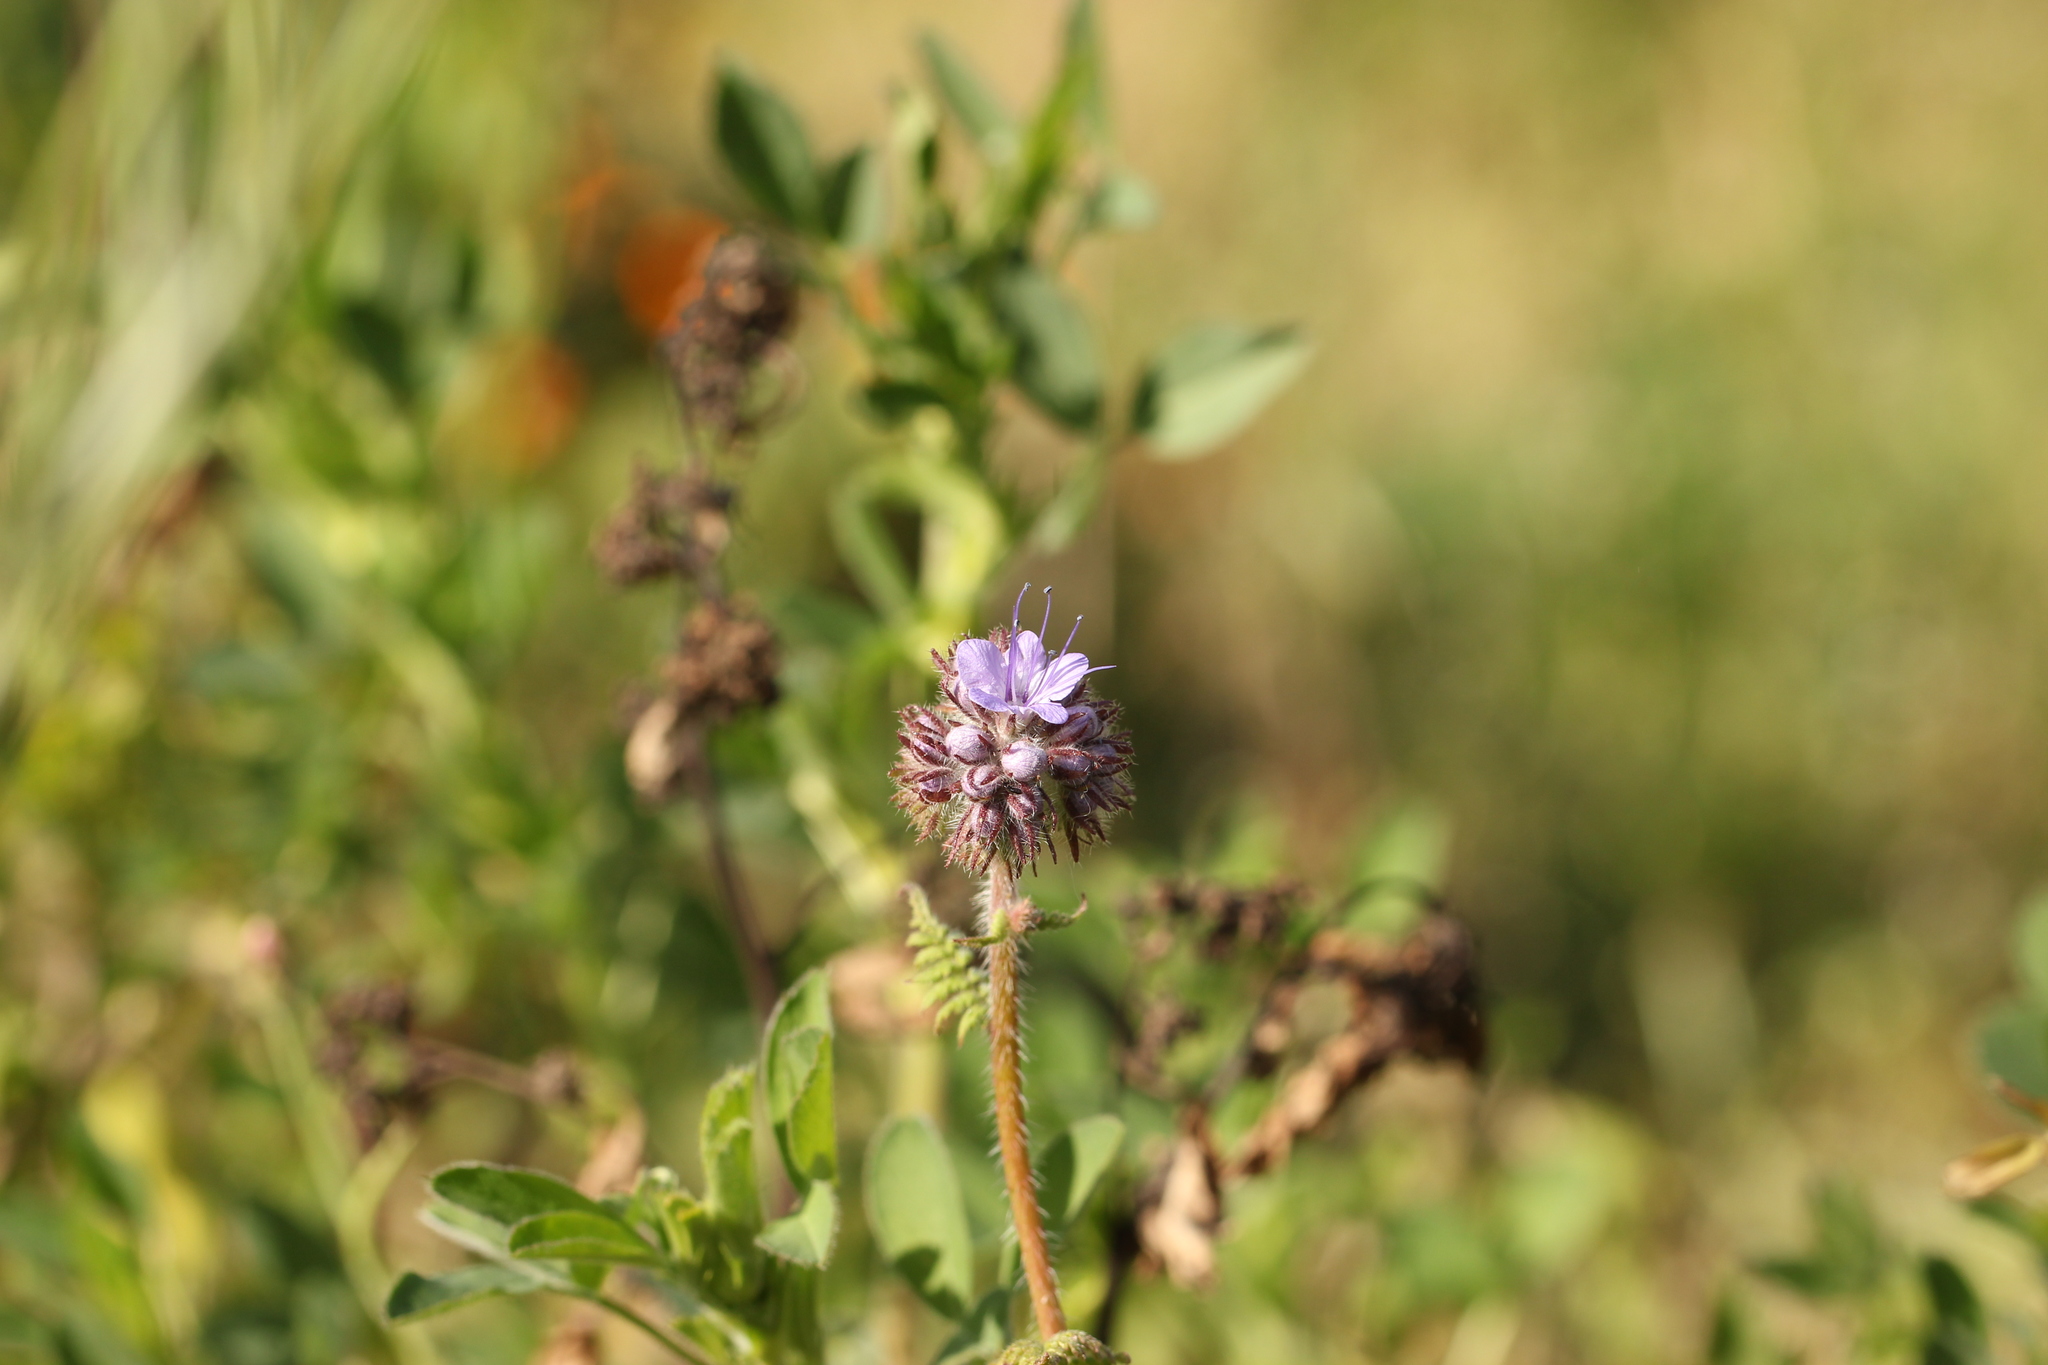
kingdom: Plantae
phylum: Tracheophyta
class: Magnoliopsida
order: Boraginales
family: Hydrophyllaceae
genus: Phacelia
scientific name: Phacelia tanacetifolia
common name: Phacelia
